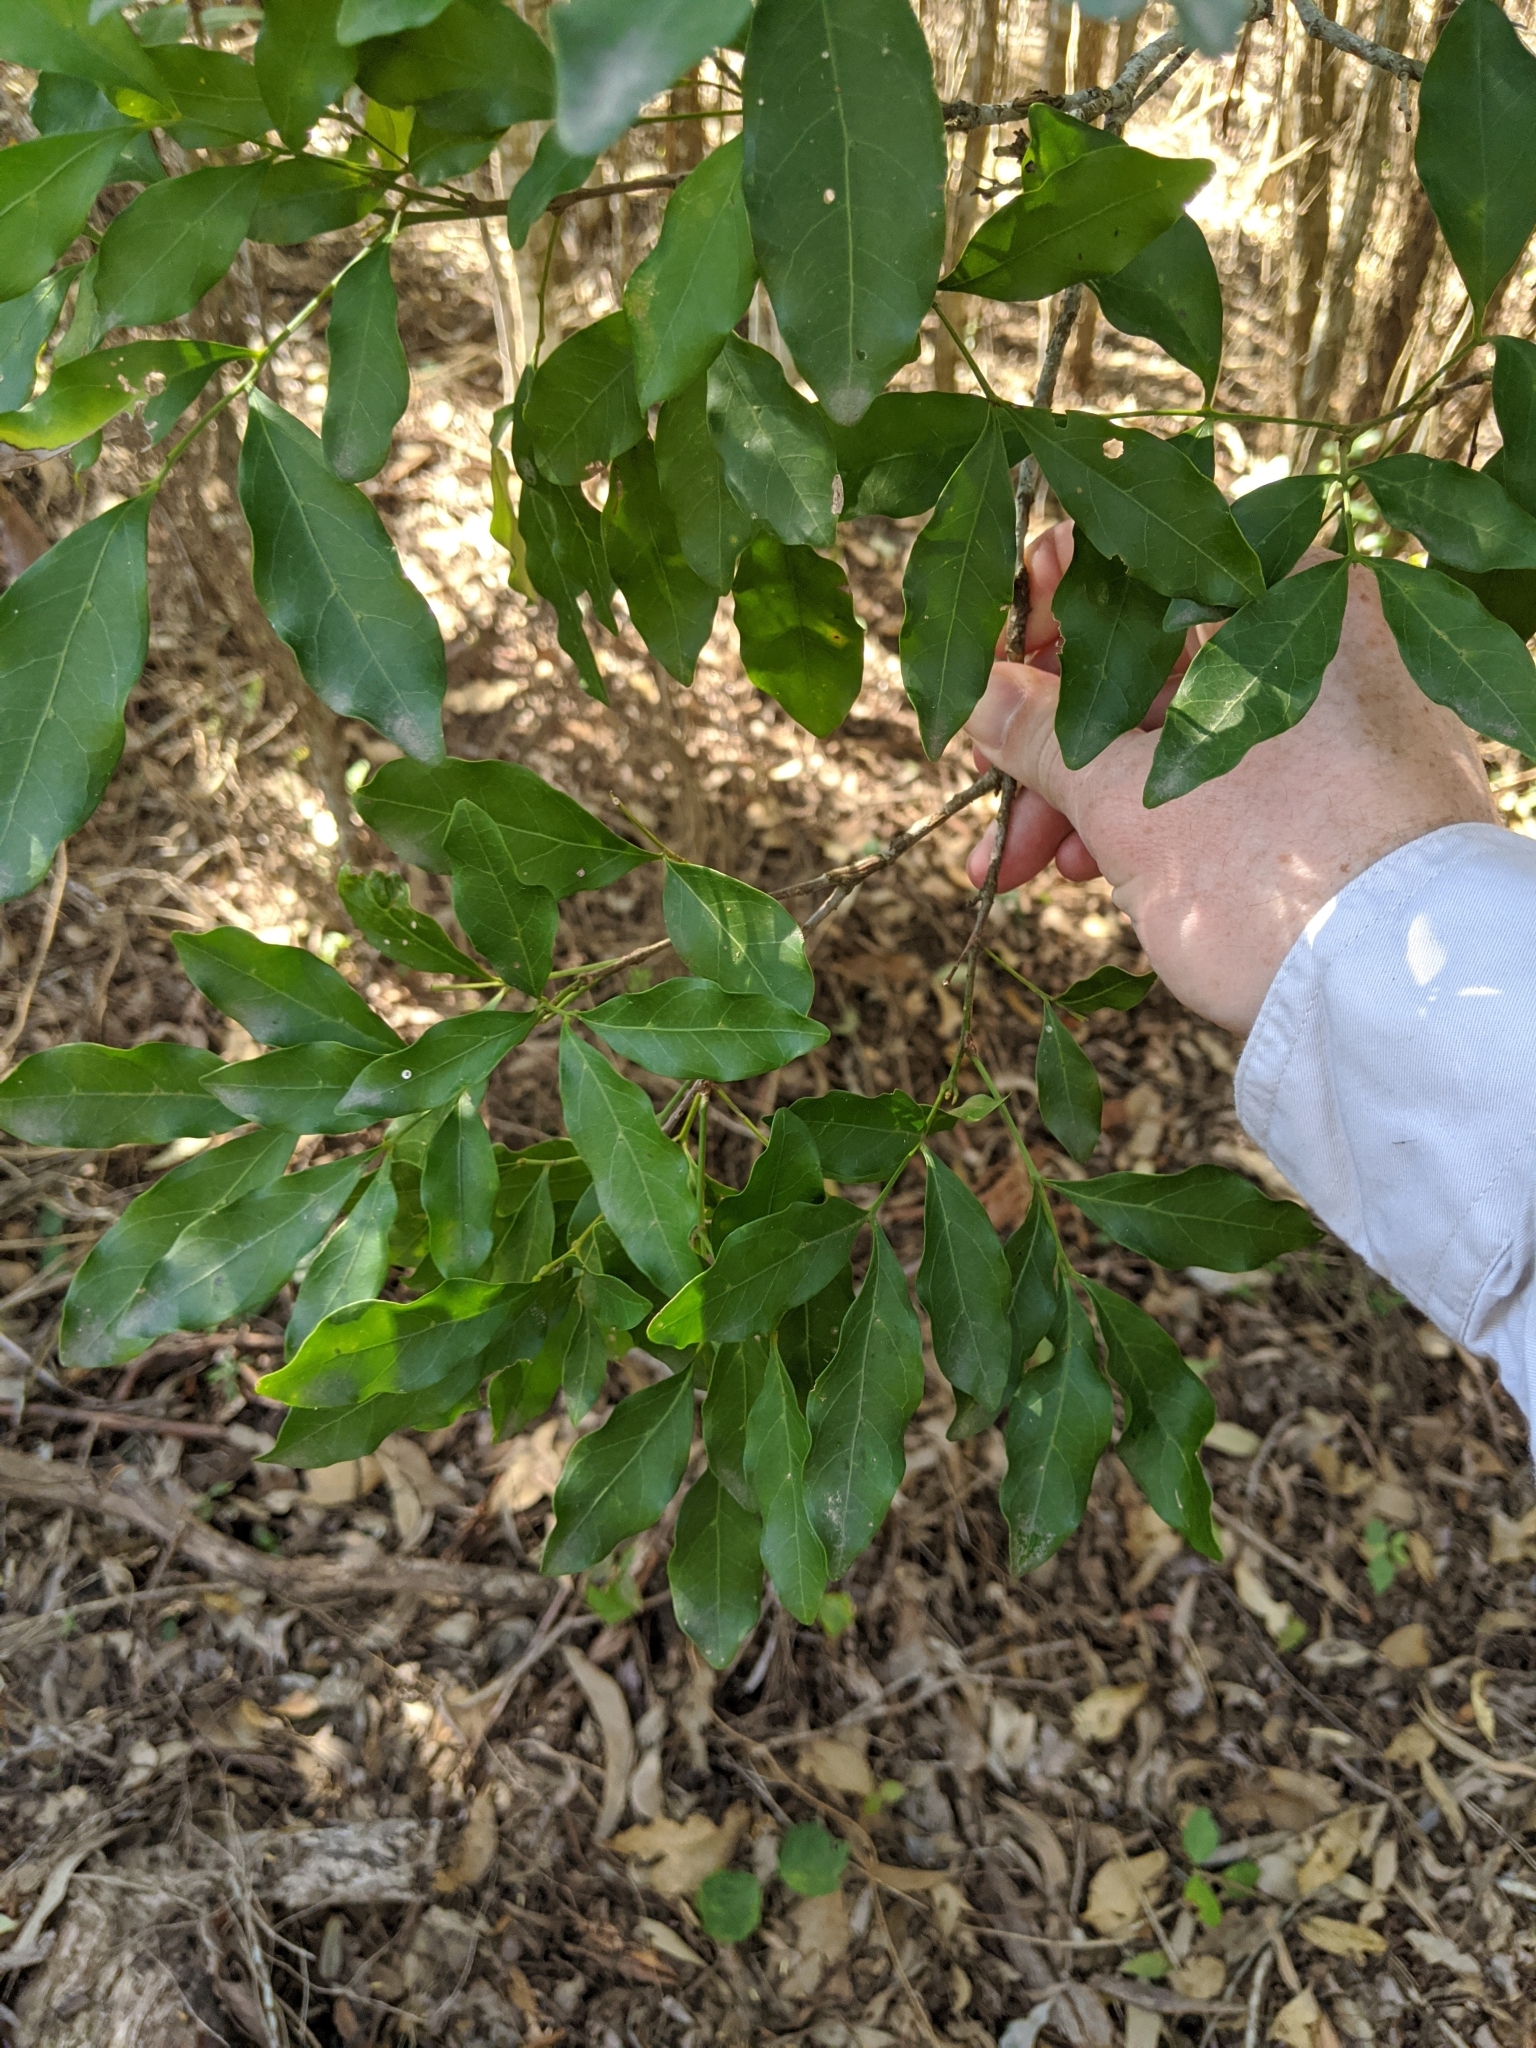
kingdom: Plantae
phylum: Tracheophyta
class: Magnoliopsida
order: Sapindales
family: Sapindaceae
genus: Toechima
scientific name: Toechima tenax
